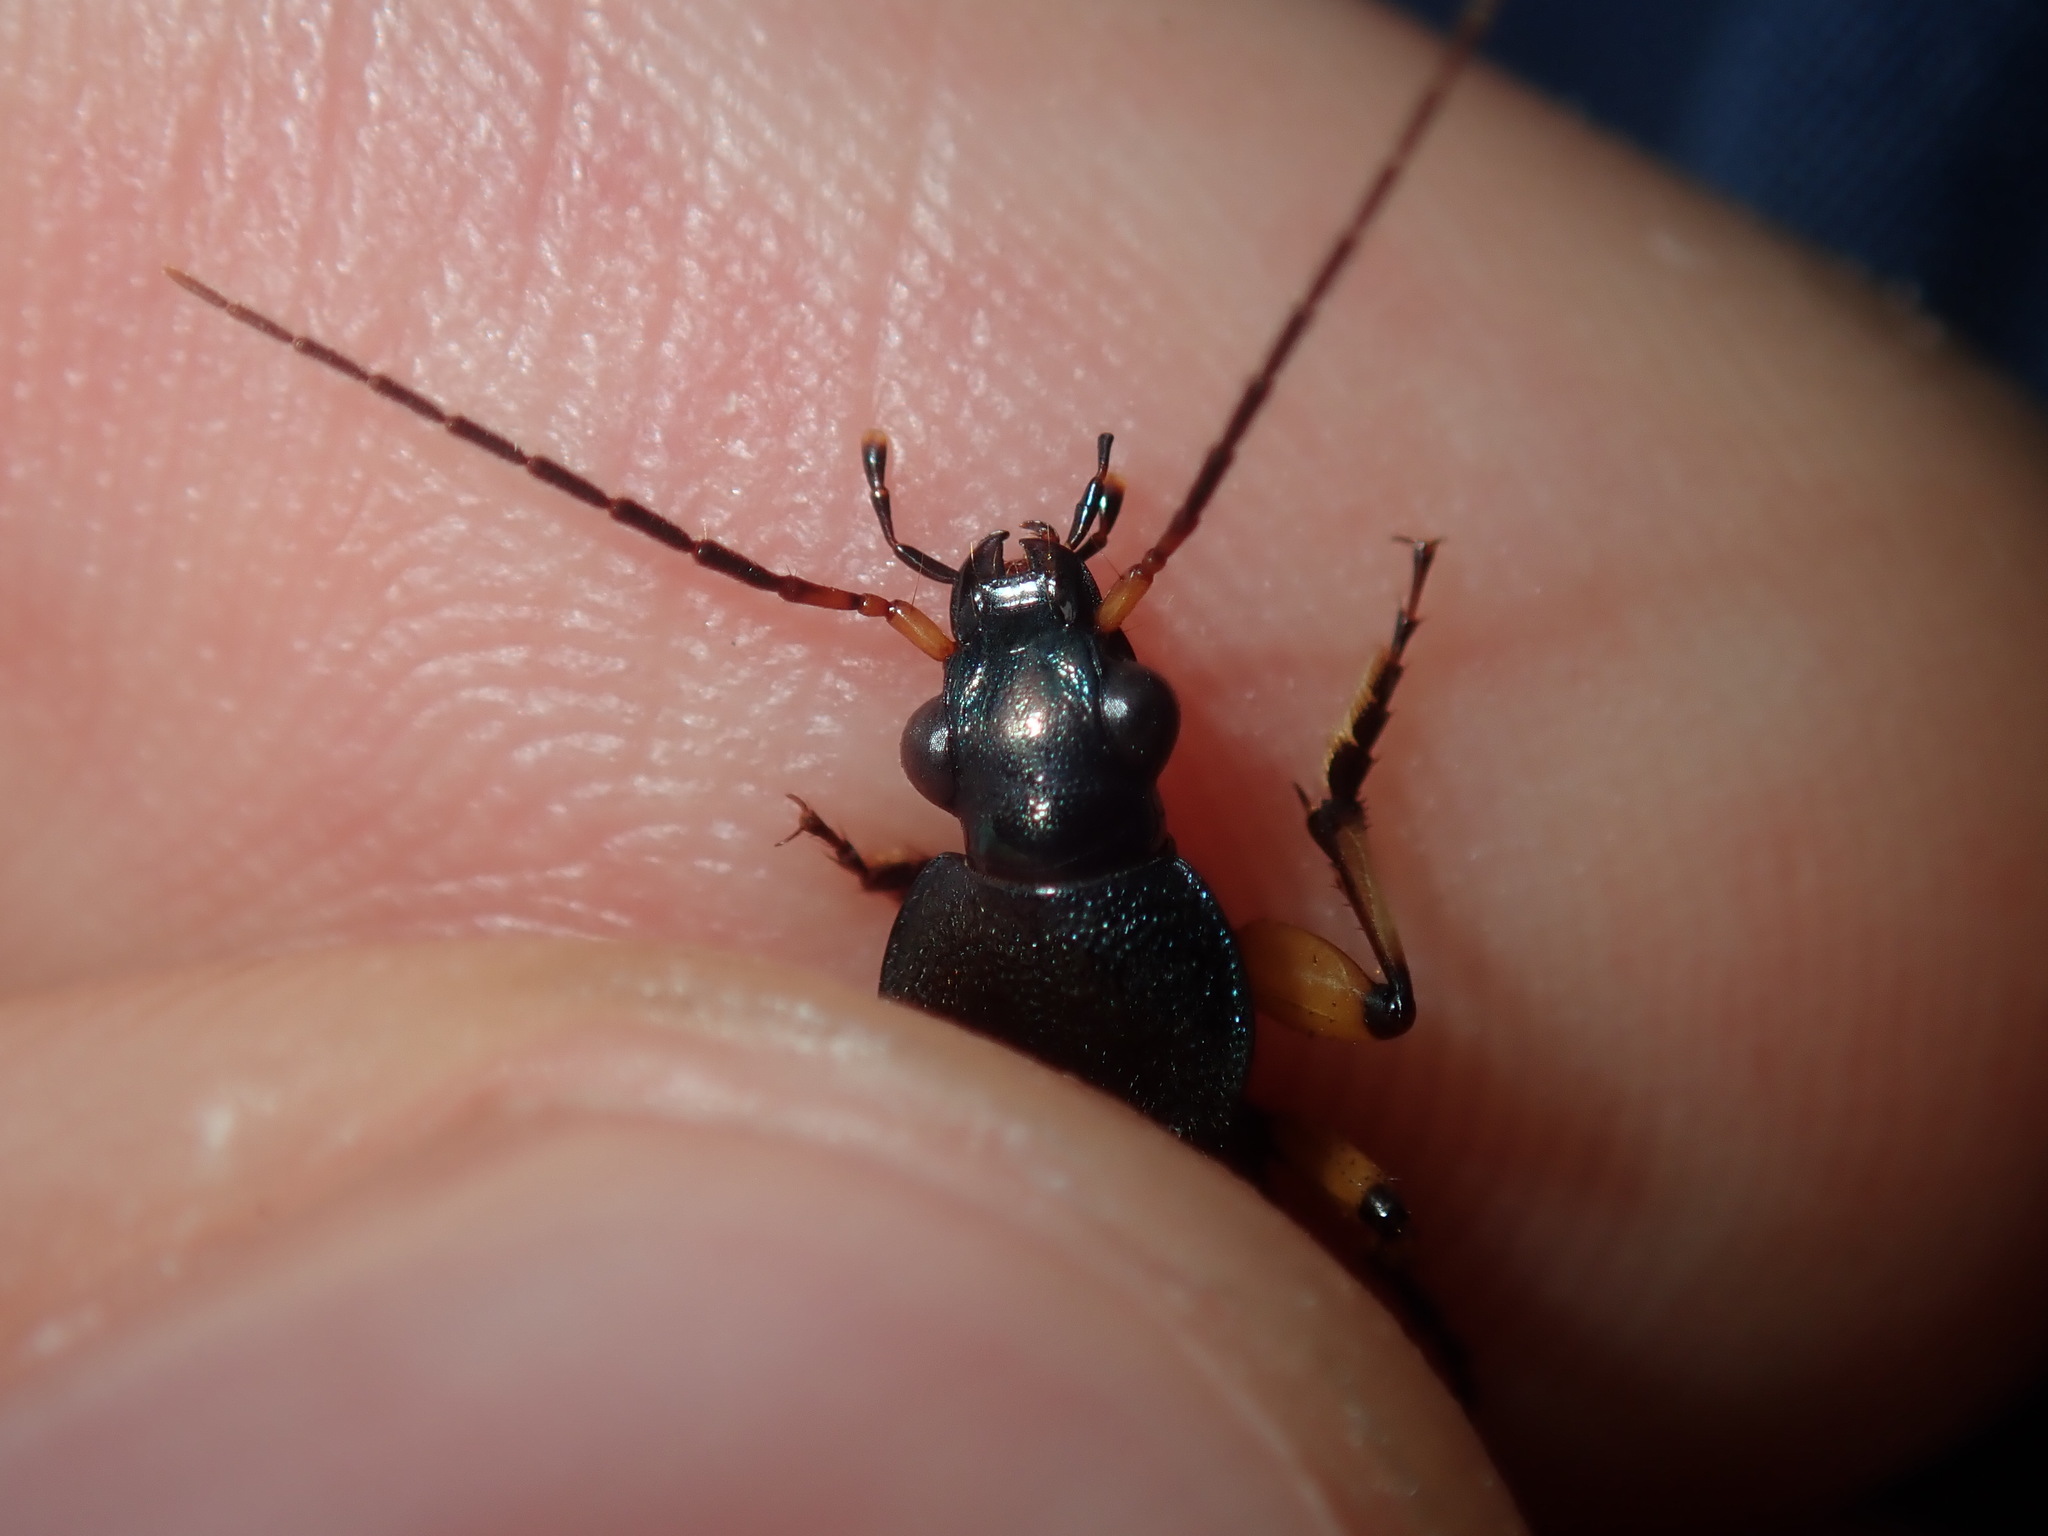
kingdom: Animalia
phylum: Arthropoda
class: Insecta
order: Coleoptera
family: Carabidae
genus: Chlaenius
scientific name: Chlaenius flaviguttatus
